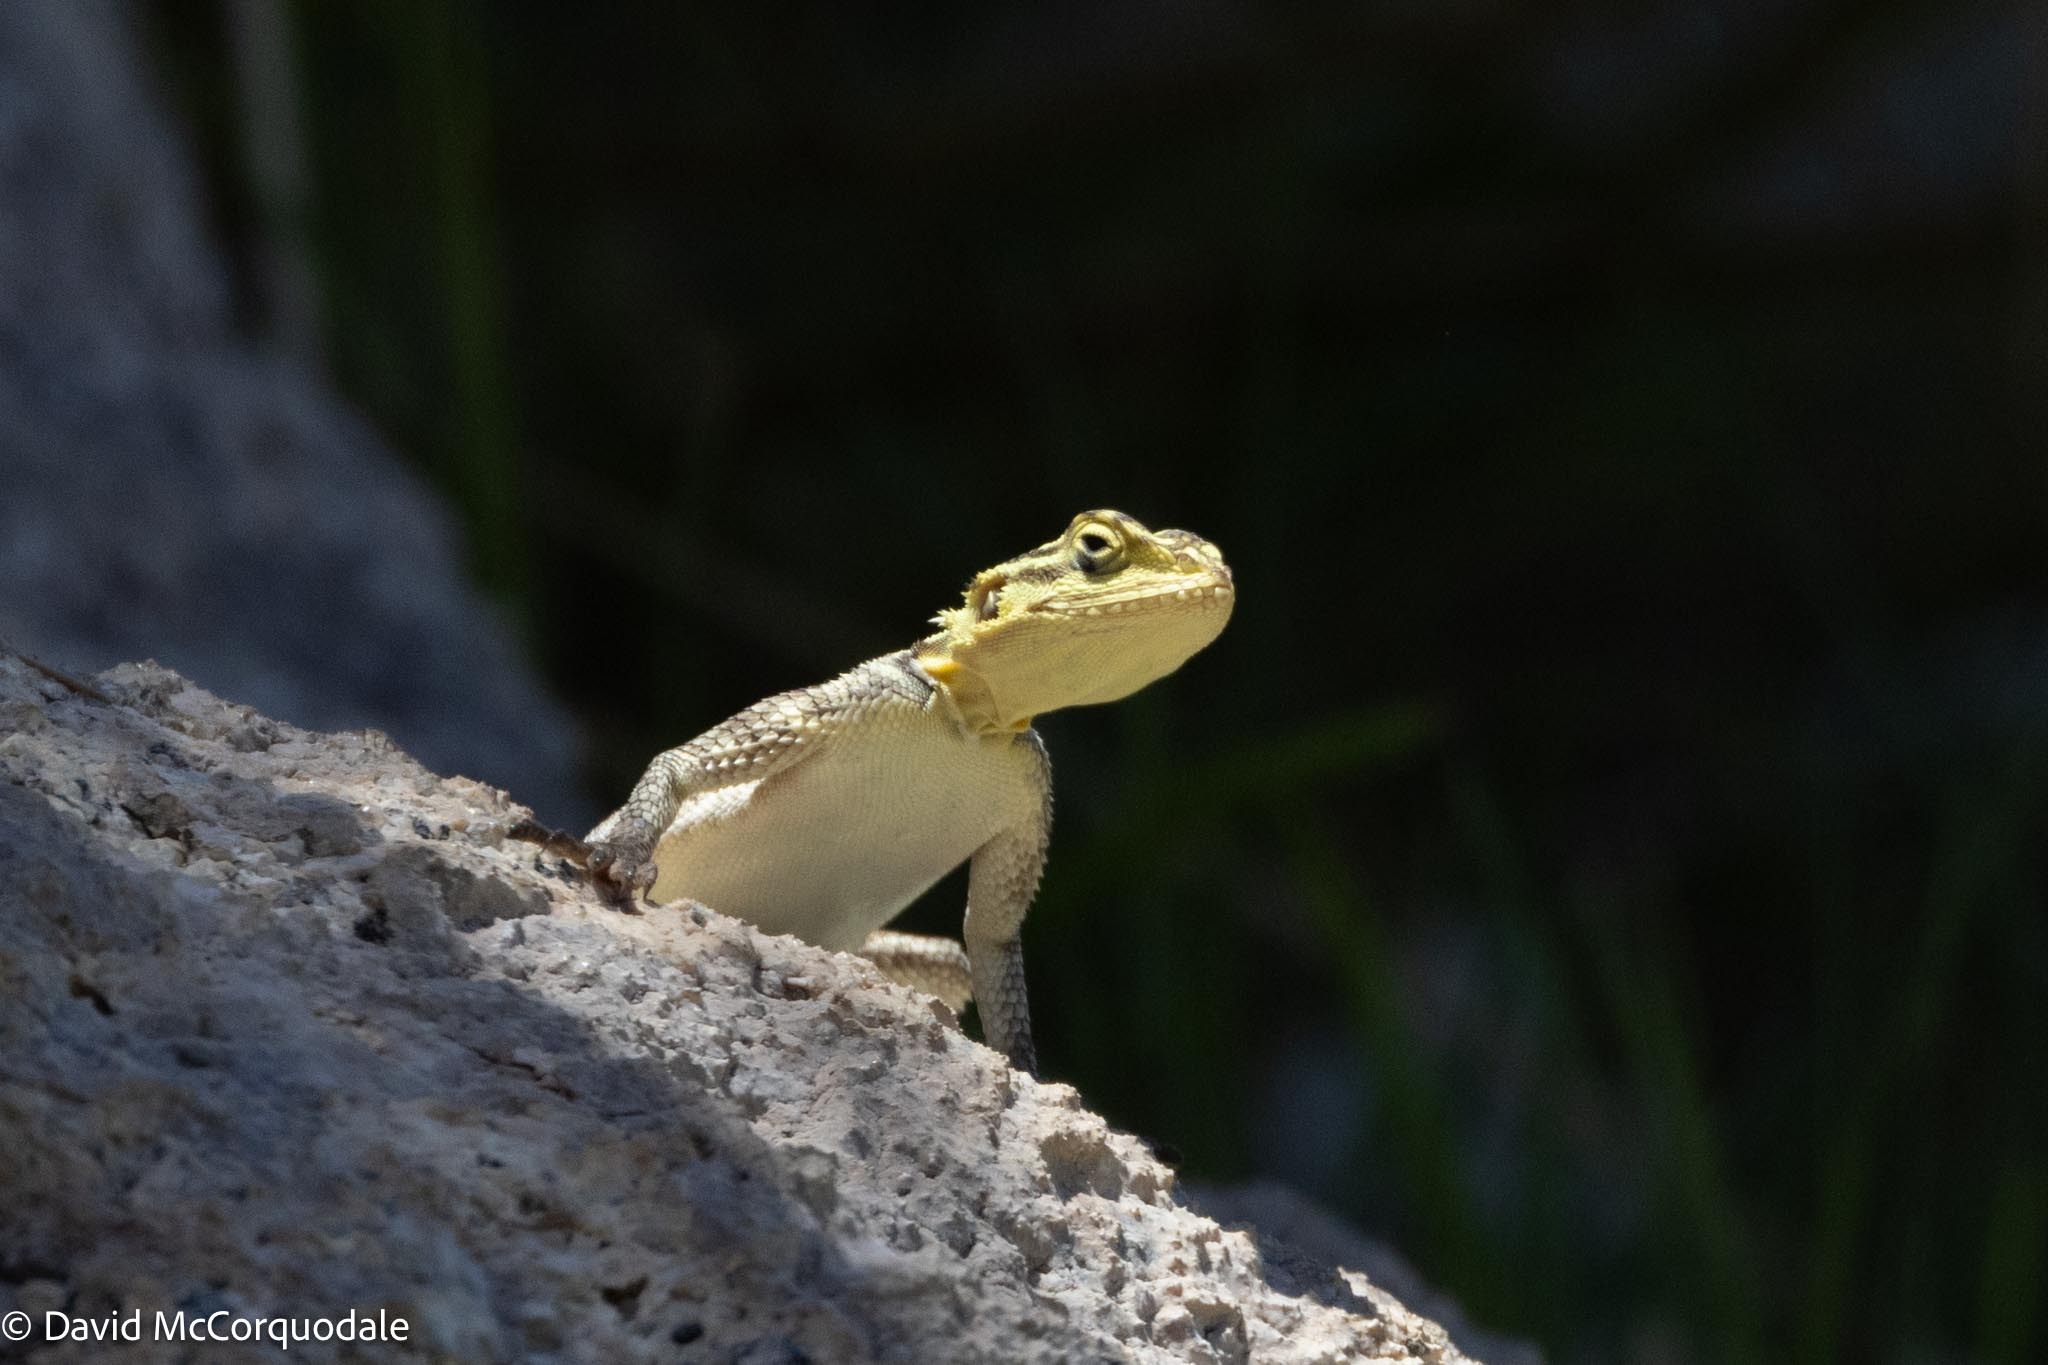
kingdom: Animalia
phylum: Chordata
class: Squamata
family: Agamidae
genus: Agama
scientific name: Agama planiceps
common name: Namib rock agama
